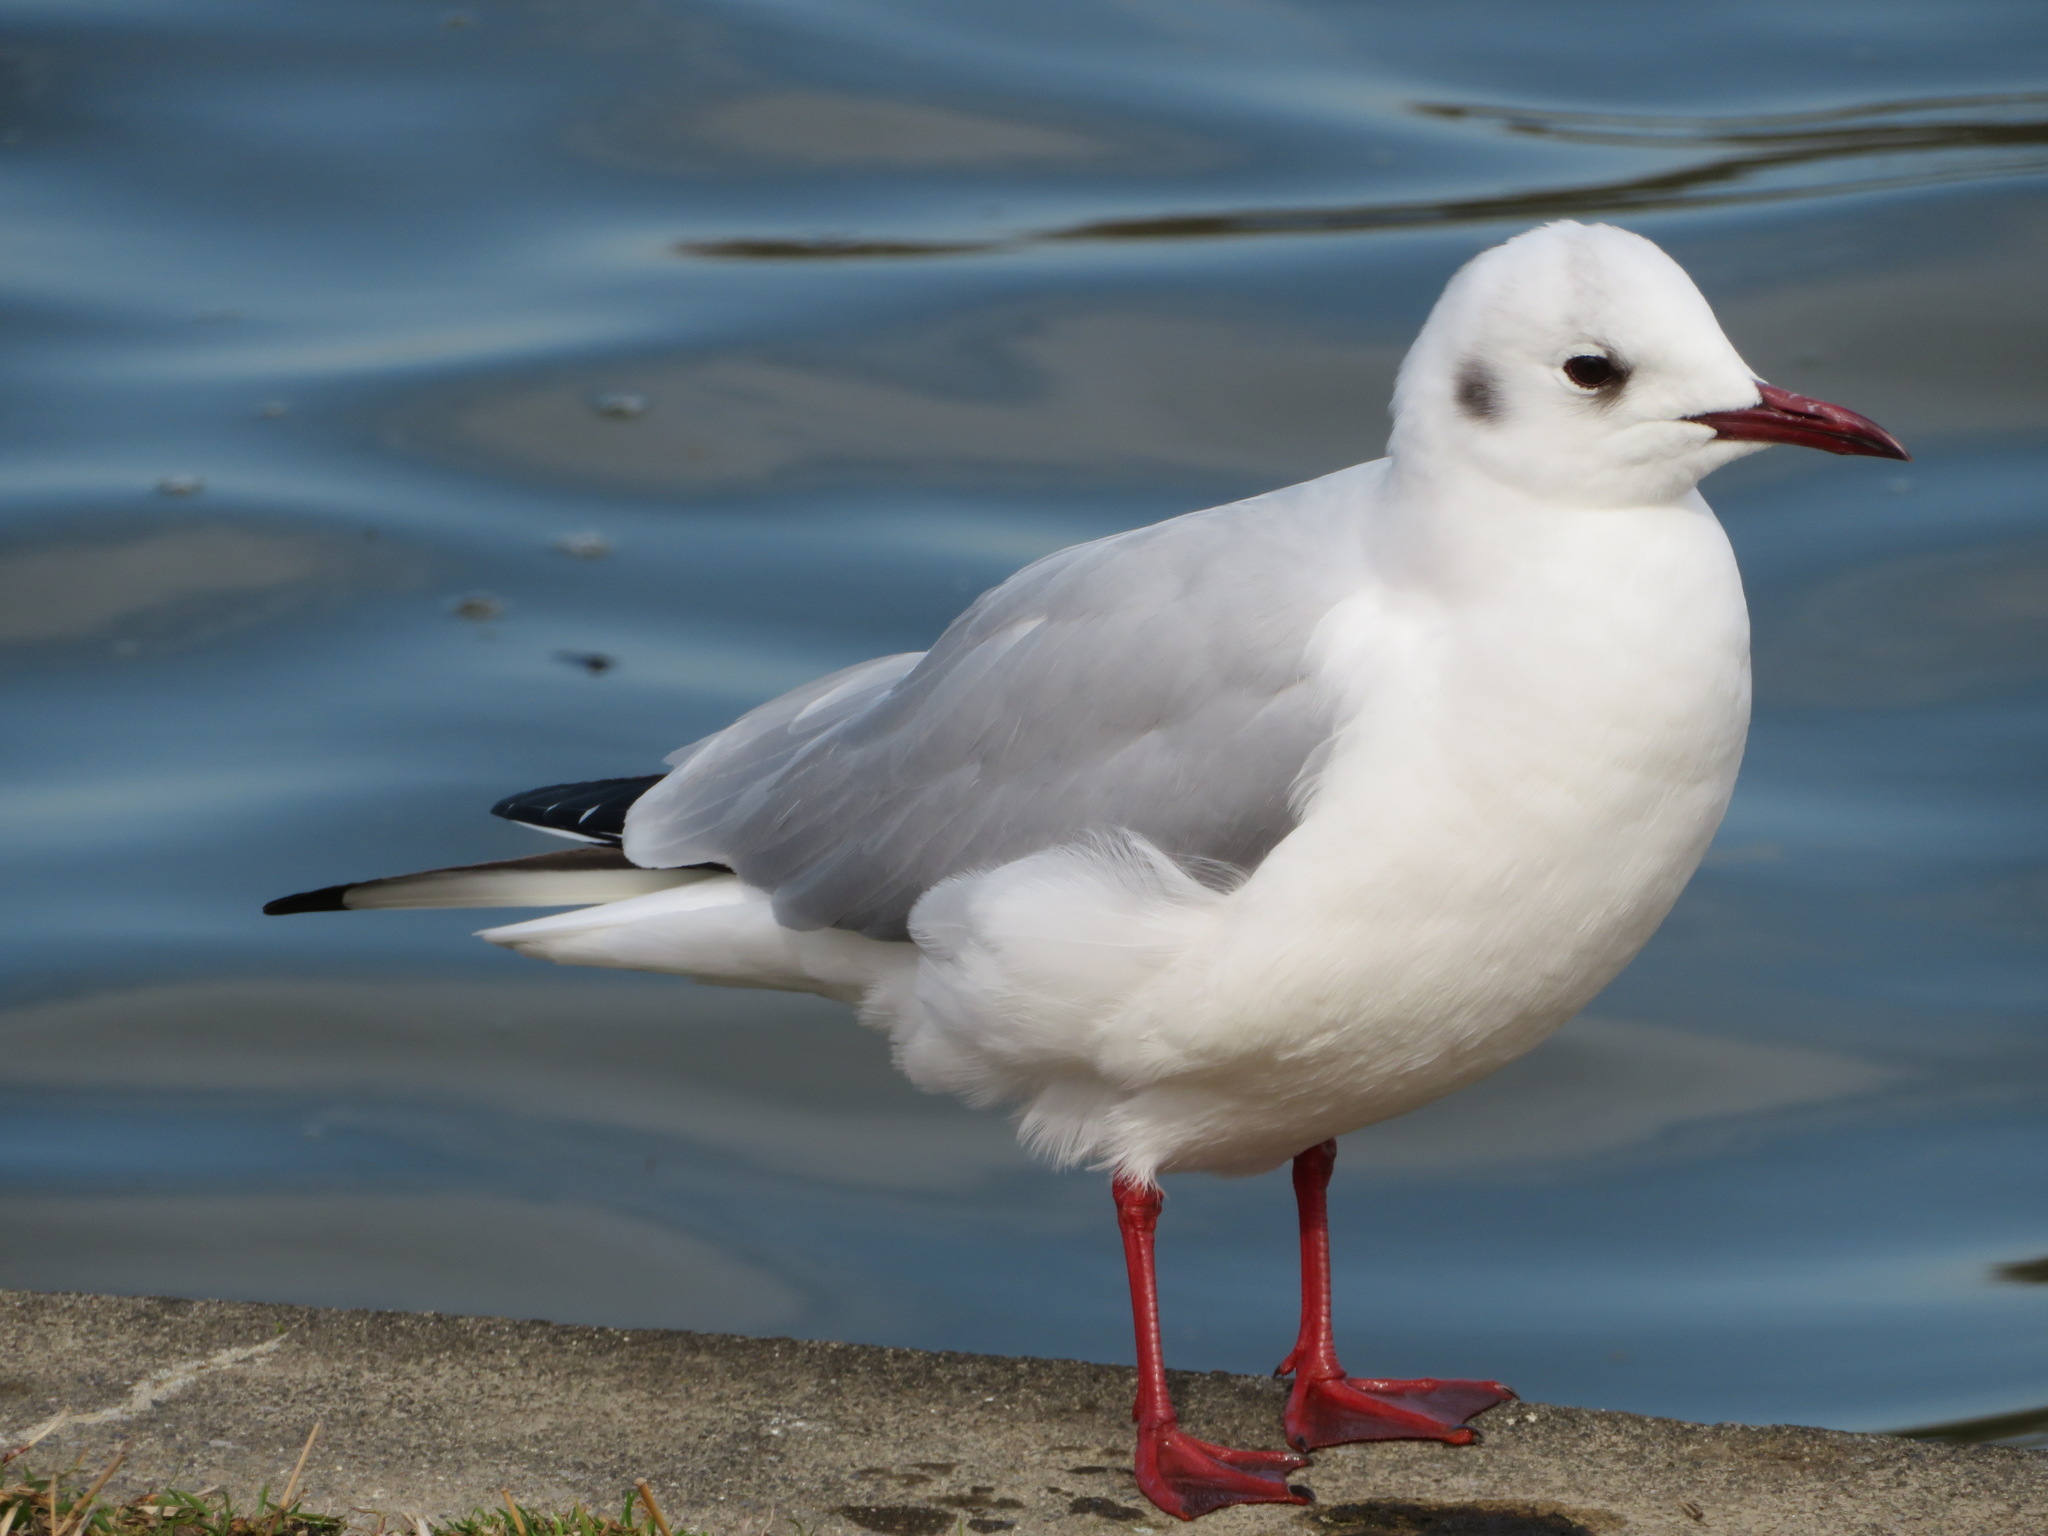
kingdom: Animalia
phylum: Chordata
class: Aves
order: Charadriiformes
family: Laridae
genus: Chroicocephalus
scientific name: Chroicocephalus ridibundus
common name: Black-headed gull
